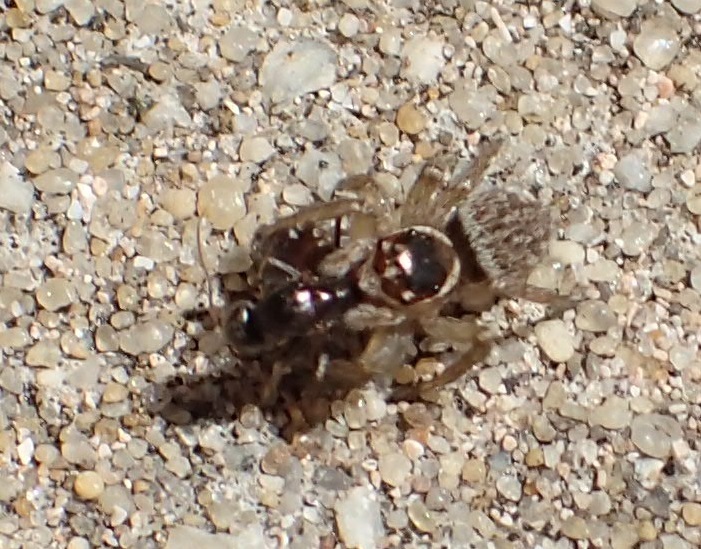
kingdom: Animalia
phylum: Arthropoda
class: Arachnida
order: Araneae
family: Salticidae
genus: Maratus
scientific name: Maratus griseus
